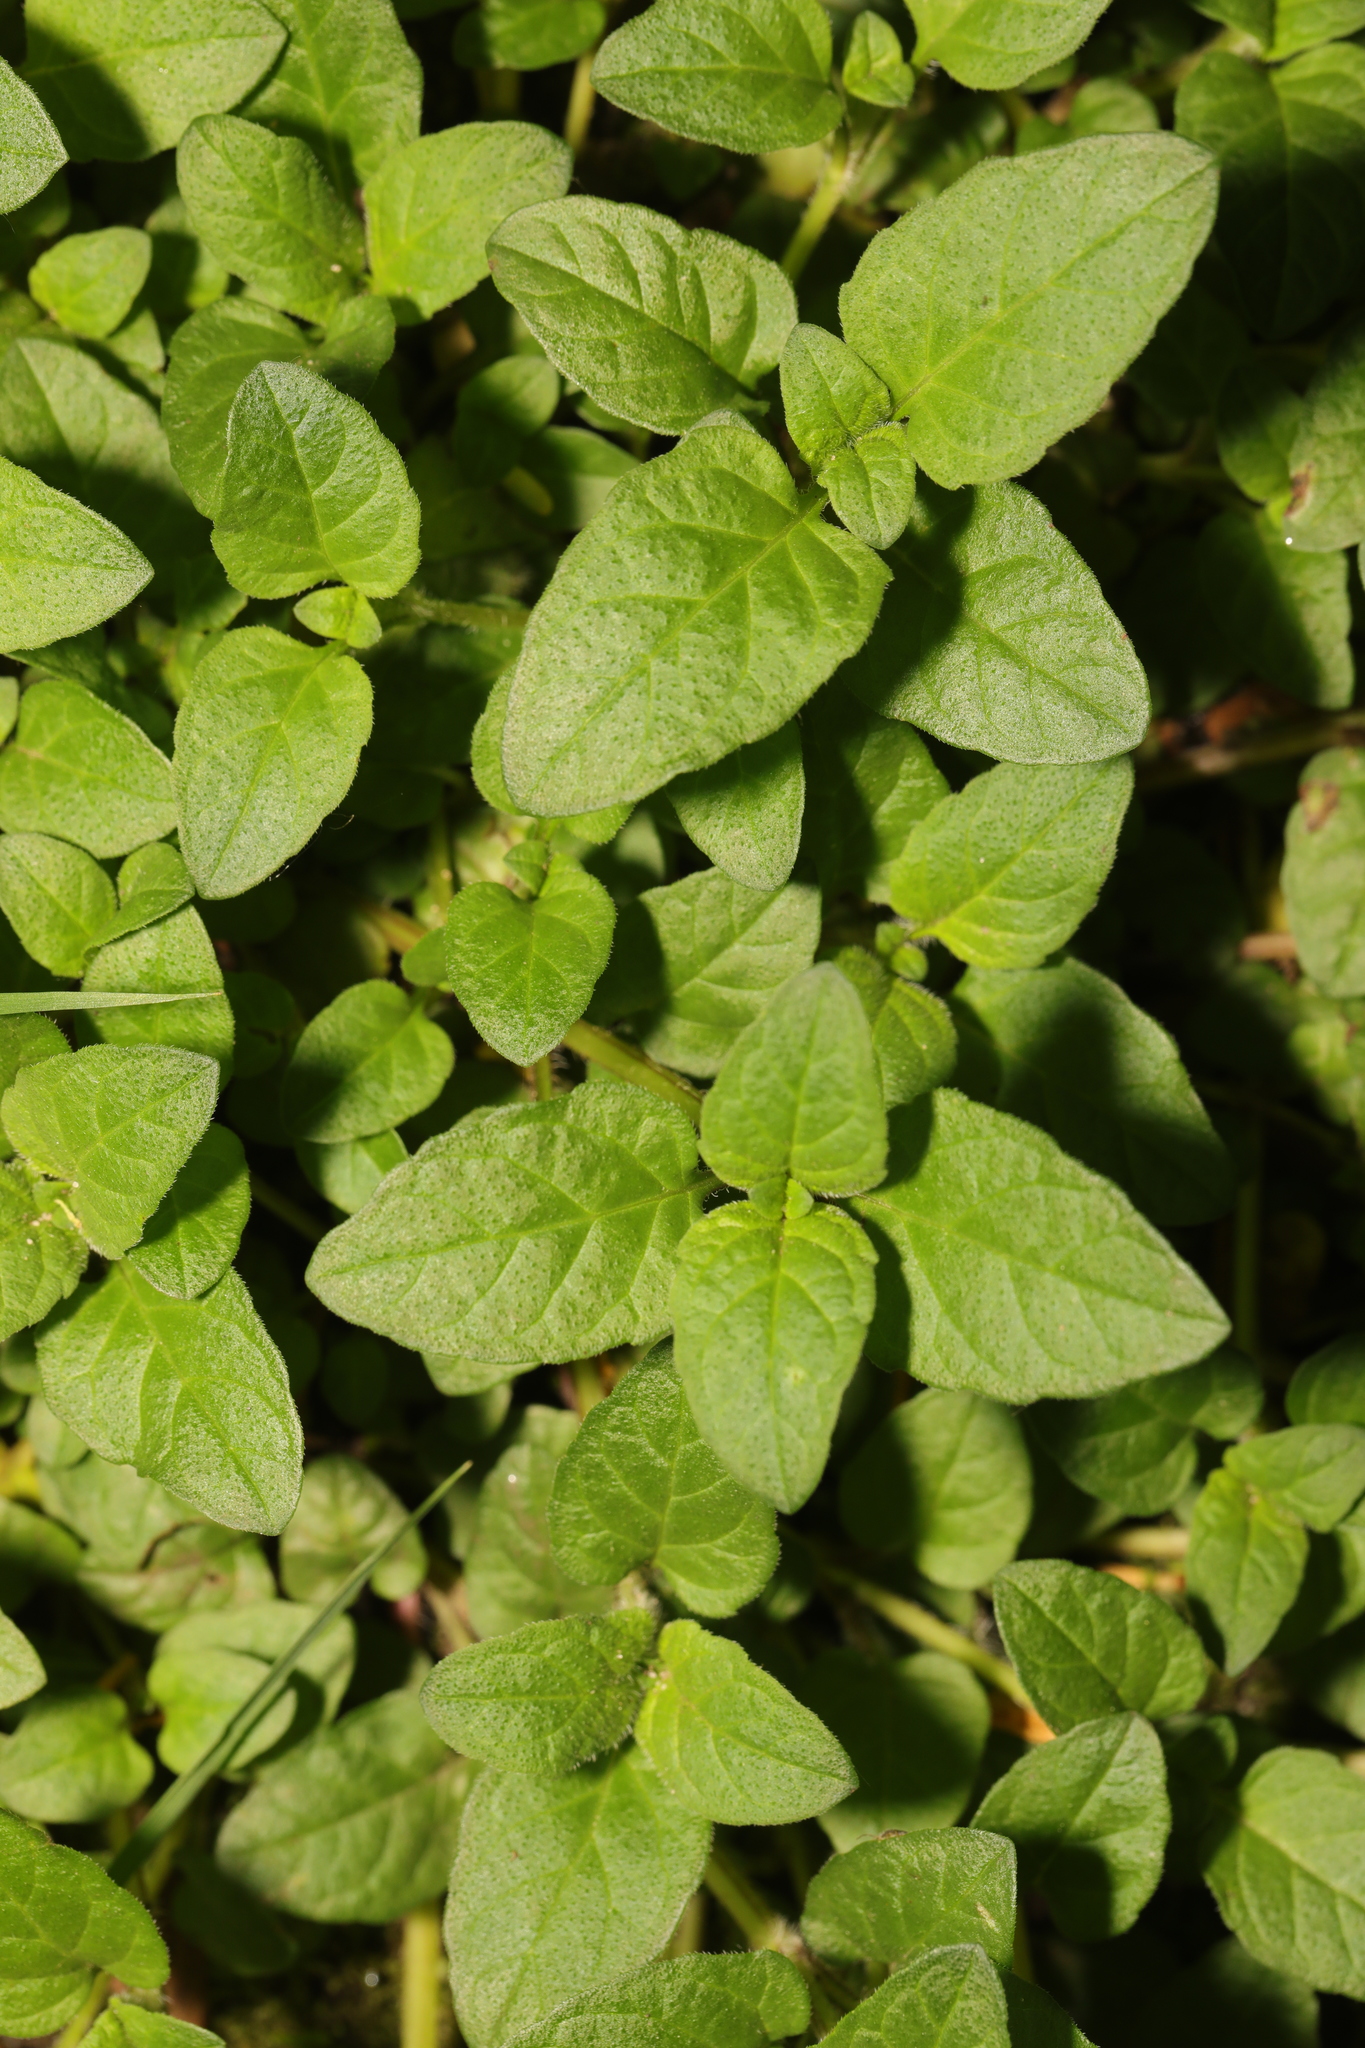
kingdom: Plantae
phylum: Tracheophyta
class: Magnoliopsida
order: Lamiales
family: Lamiaceae
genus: Prunella
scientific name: Prunella vulgaris
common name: Heal-all
